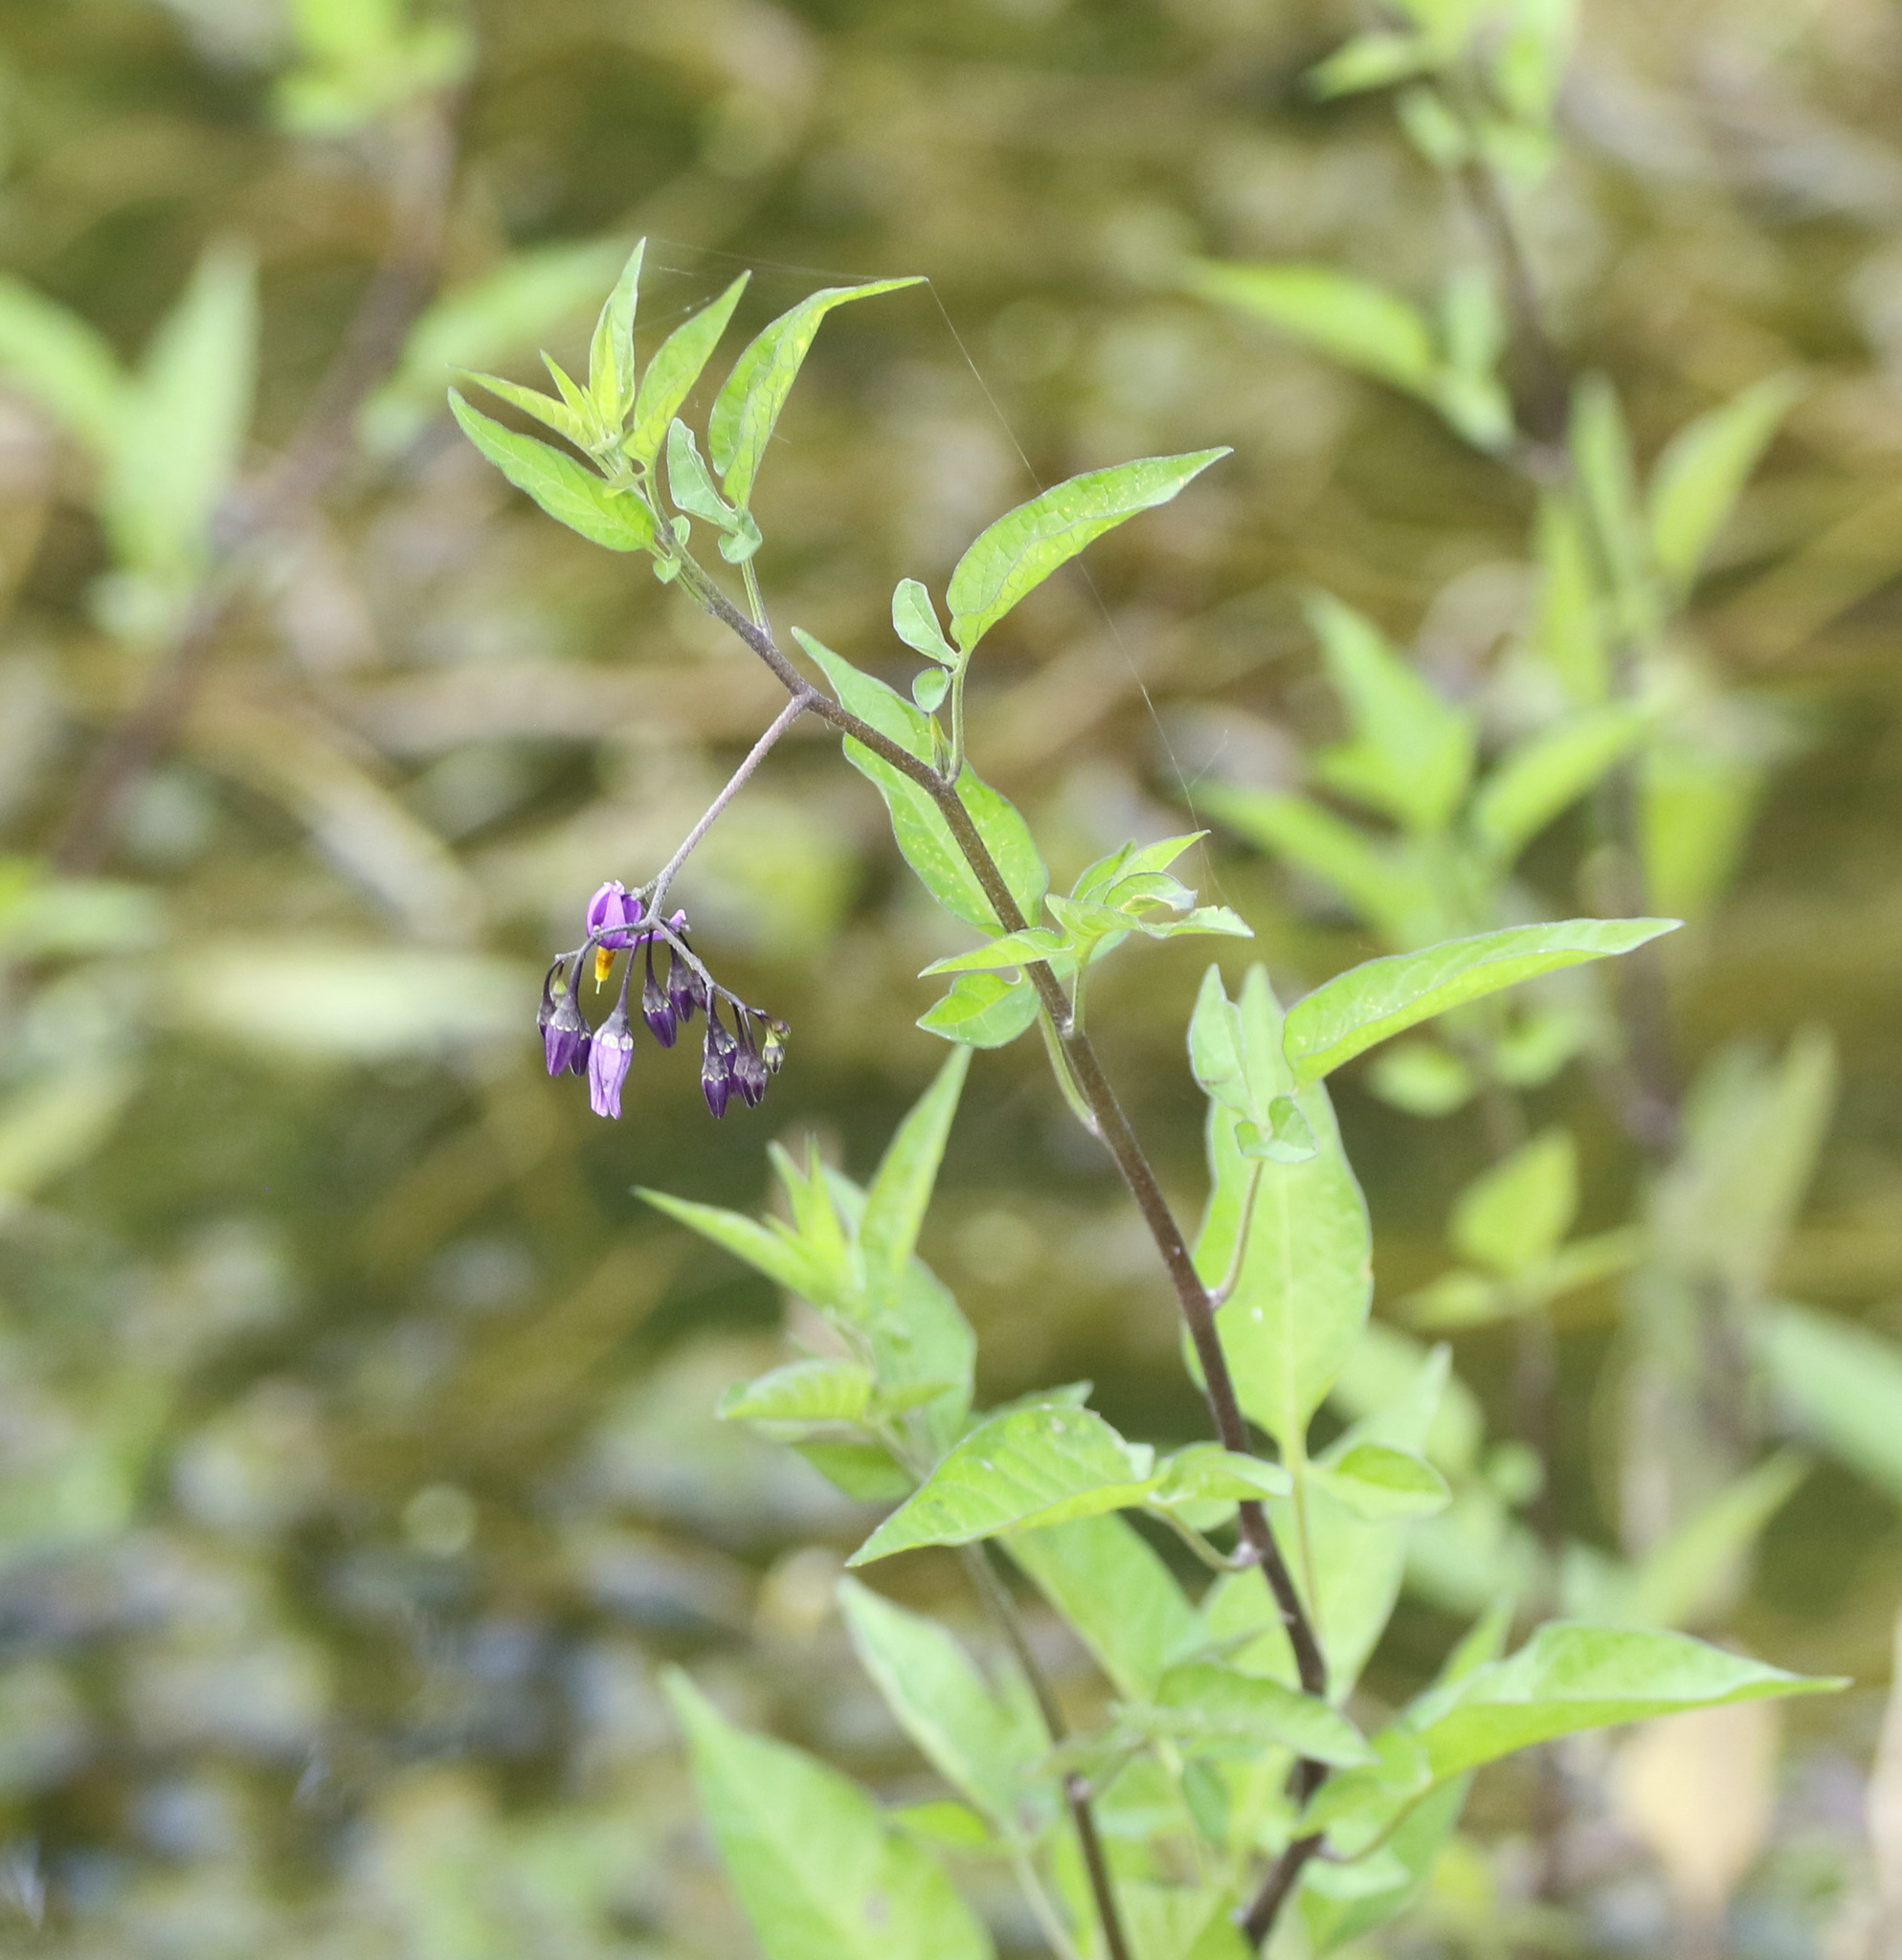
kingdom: Plantae
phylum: Tracheophyta
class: Magnoliopsida
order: Solanales
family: Solanaceae
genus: Solanum
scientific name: Solanum dulcamara
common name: Climbing nightshade
